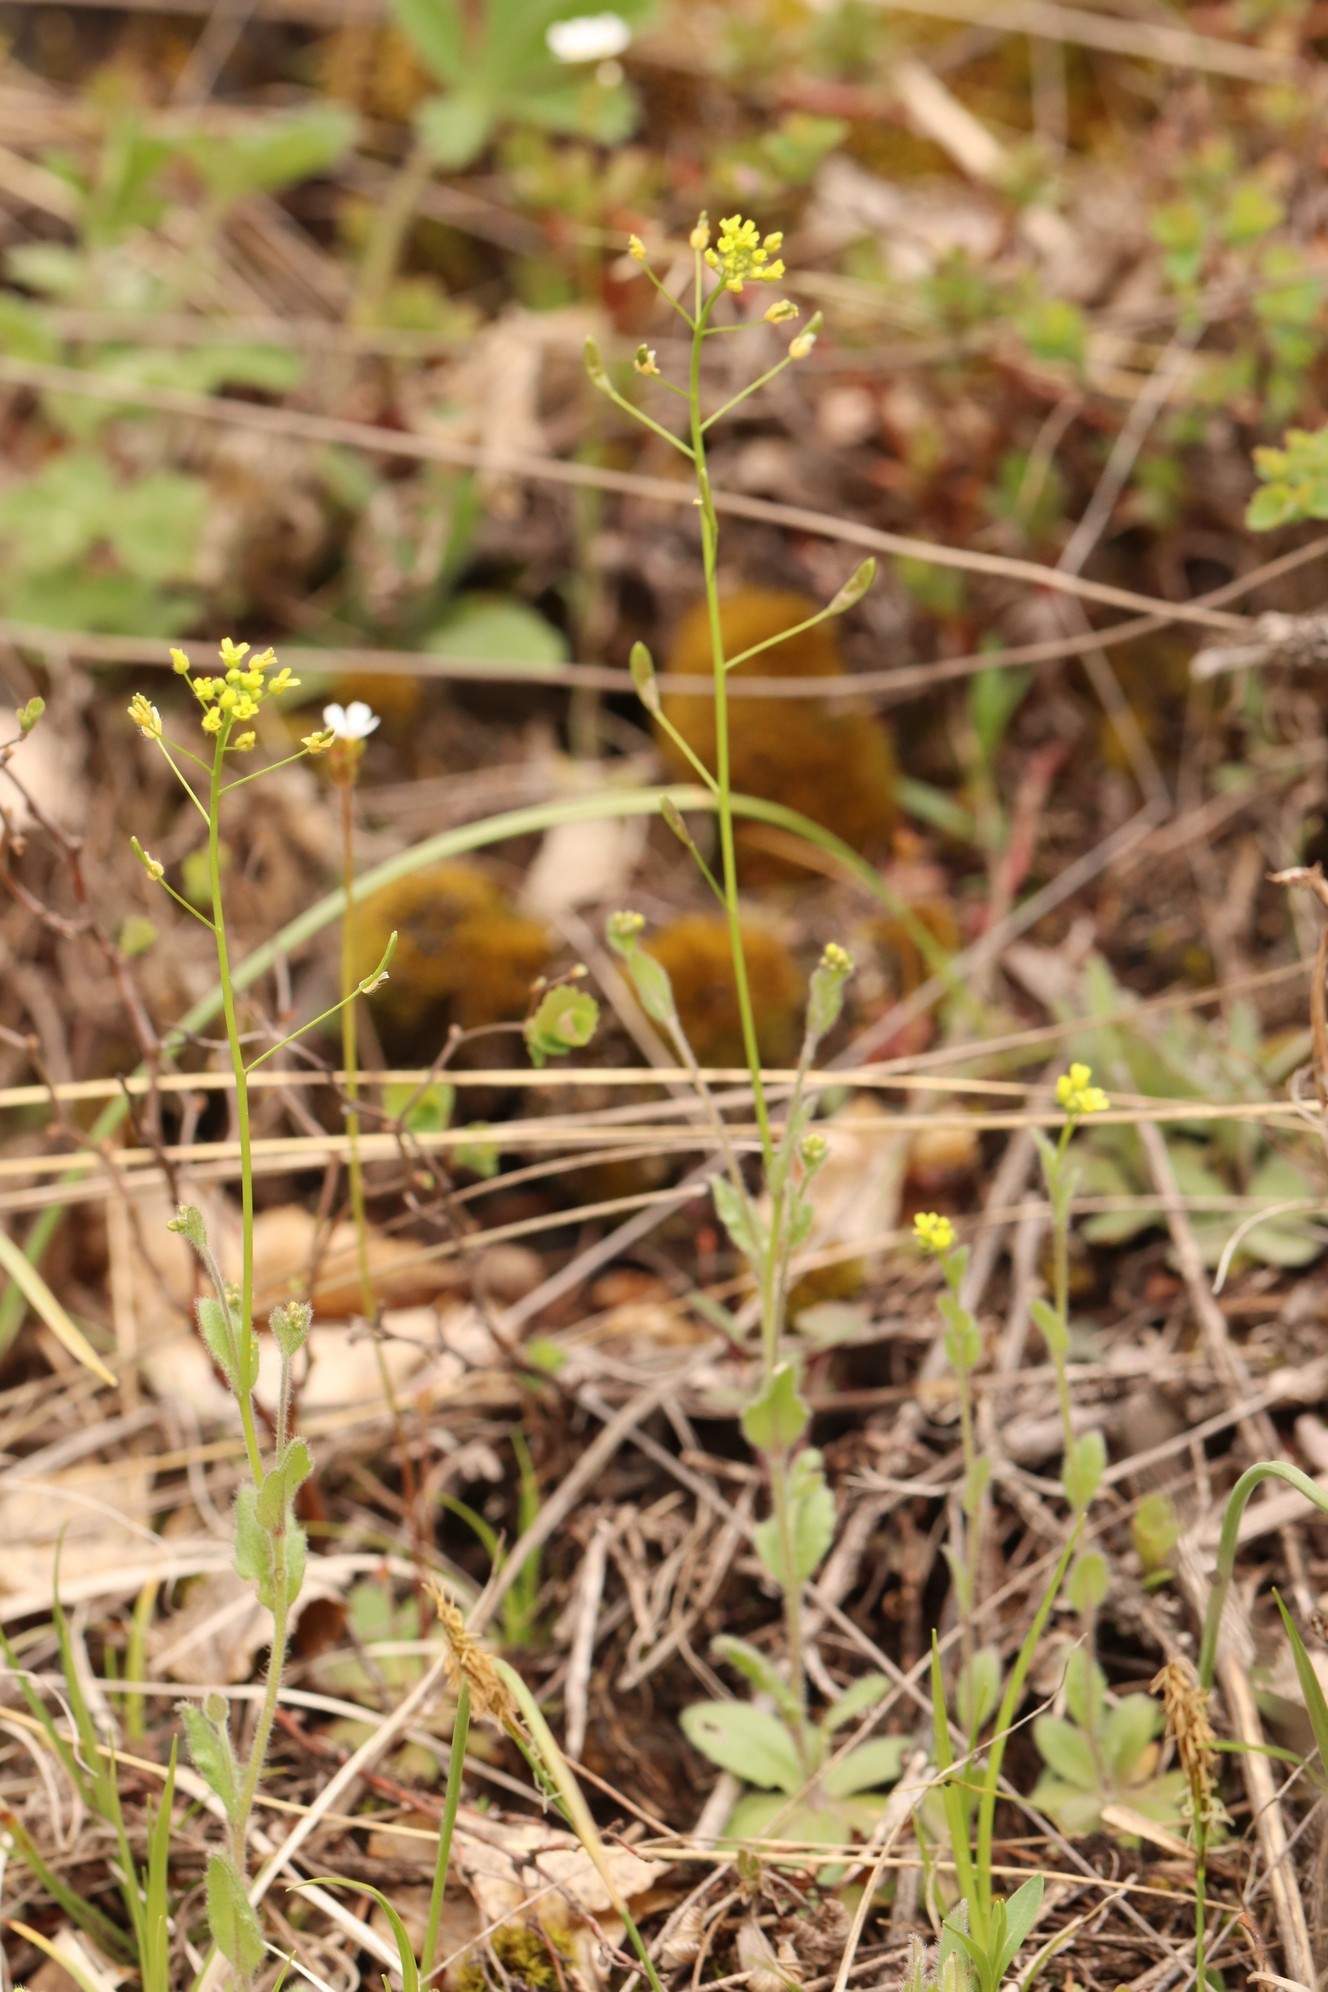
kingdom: Plantae
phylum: Tracheophyta
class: Magnoliopsida
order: Brassicales
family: Brassicaceae
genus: Draba
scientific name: Draba nemorosa
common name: Wood whitlow-grass
